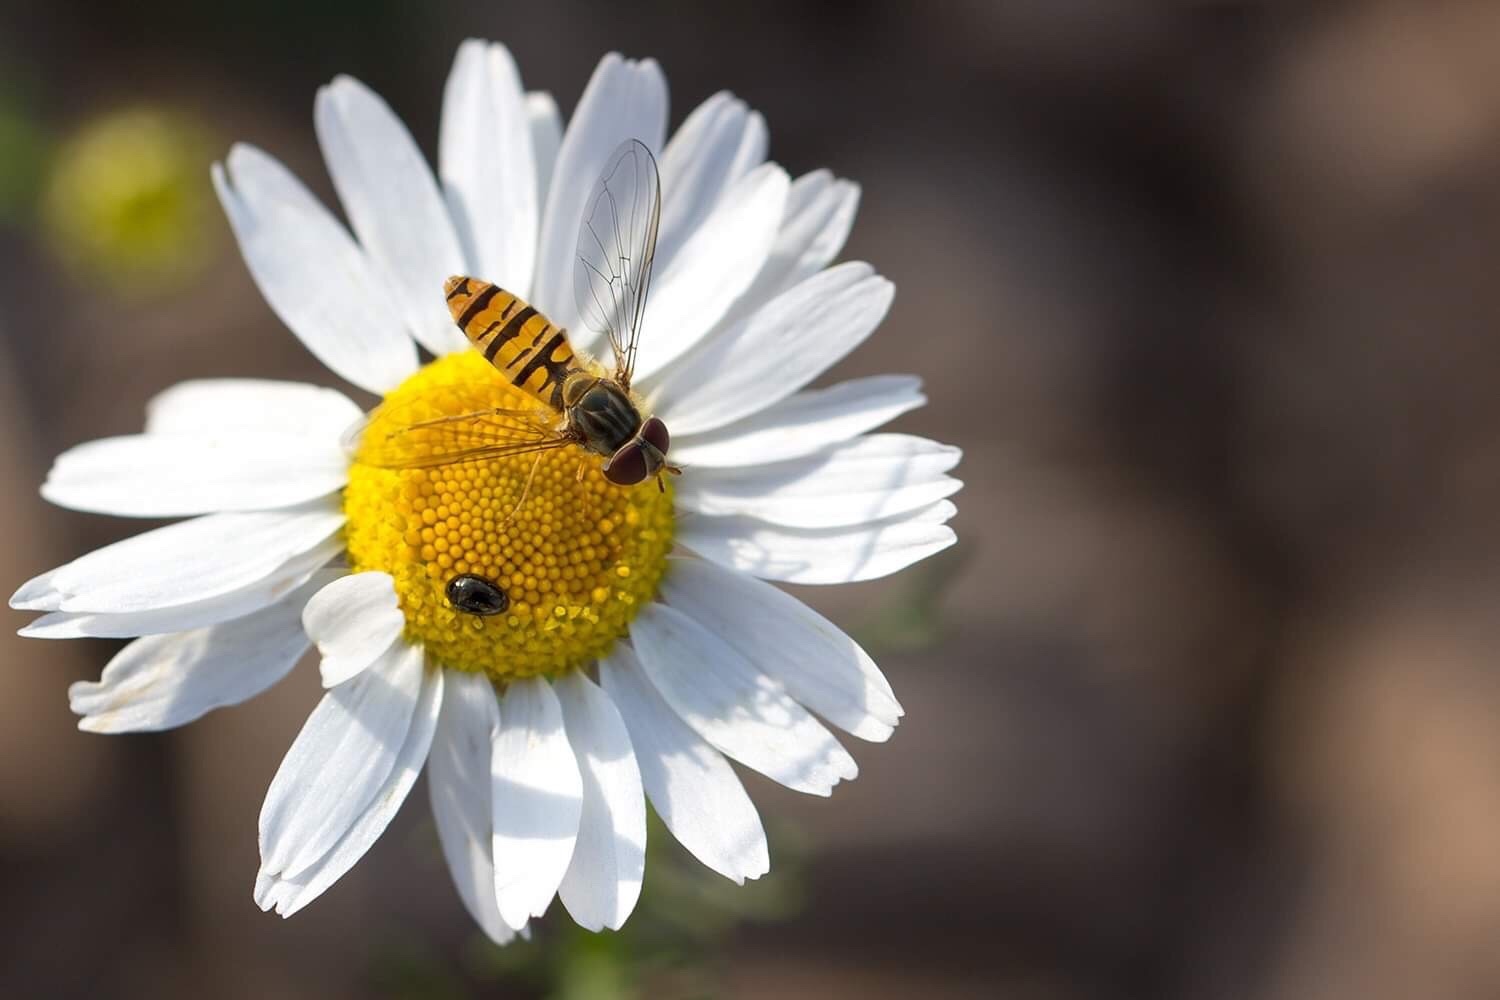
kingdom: Animalia
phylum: Arthropoda
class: Insecta
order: Diptera
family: Syrphidae
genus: Episyrphus
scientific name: Episyrphus balteatus
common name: Marmalade hoverfly
